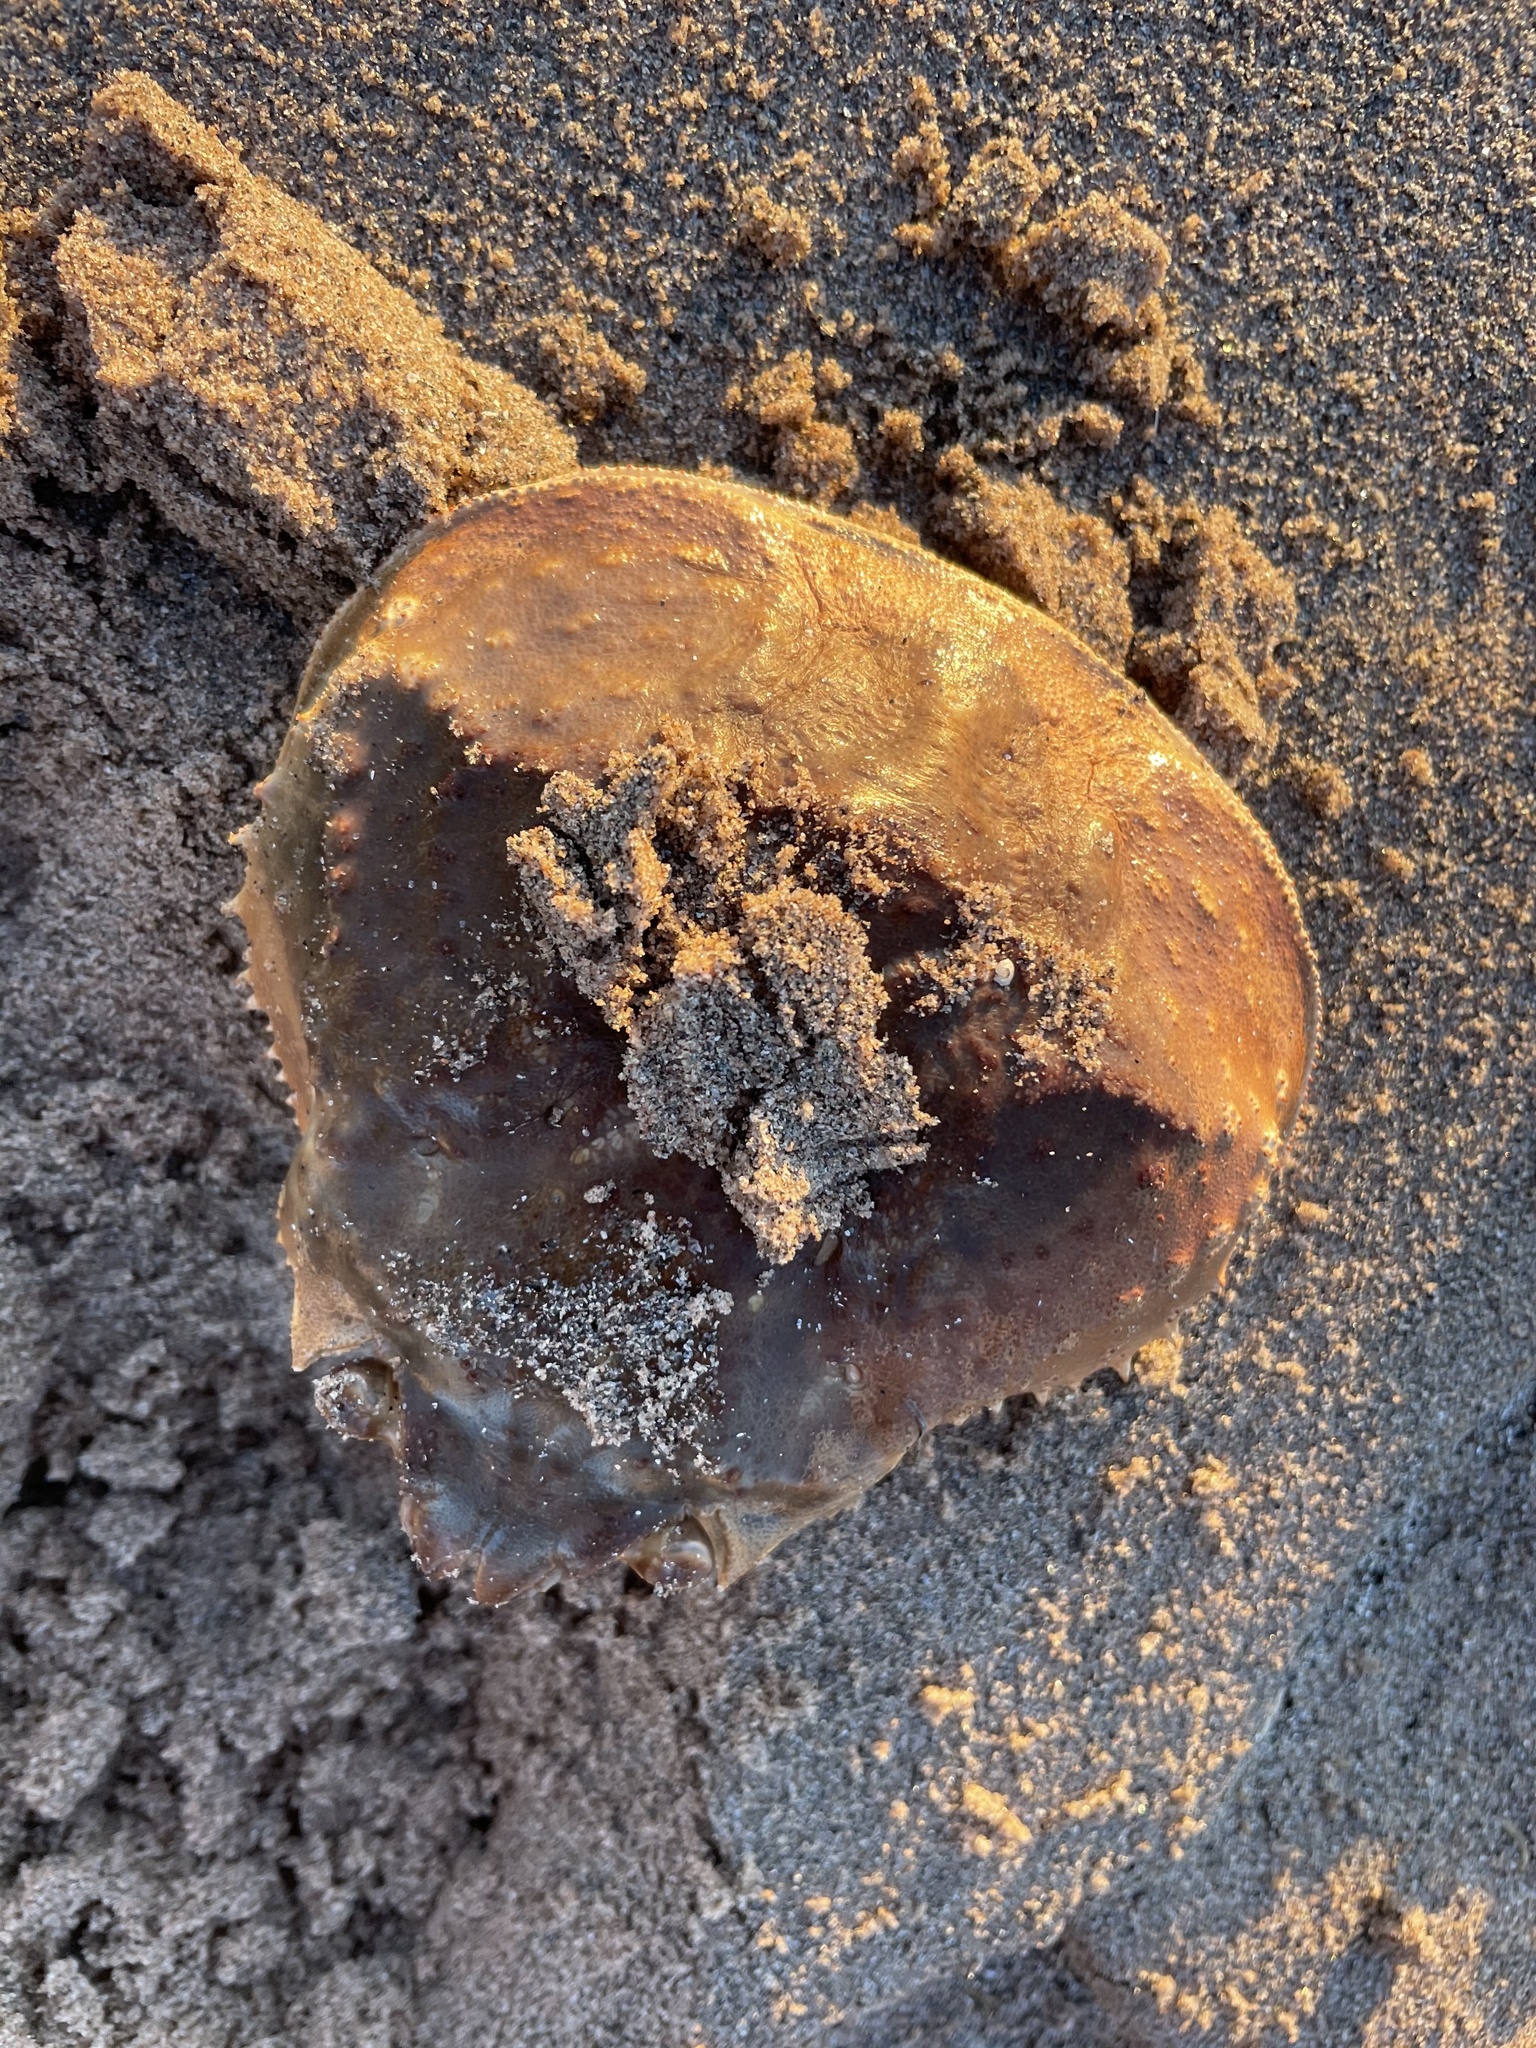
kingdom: Animalia
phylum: Arthropoda
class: Malacostraca
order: Decapoda
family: Oregoniidae
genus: Chionoecetes
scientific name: Chionoecetes opilio
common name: Atlantic snow crab
